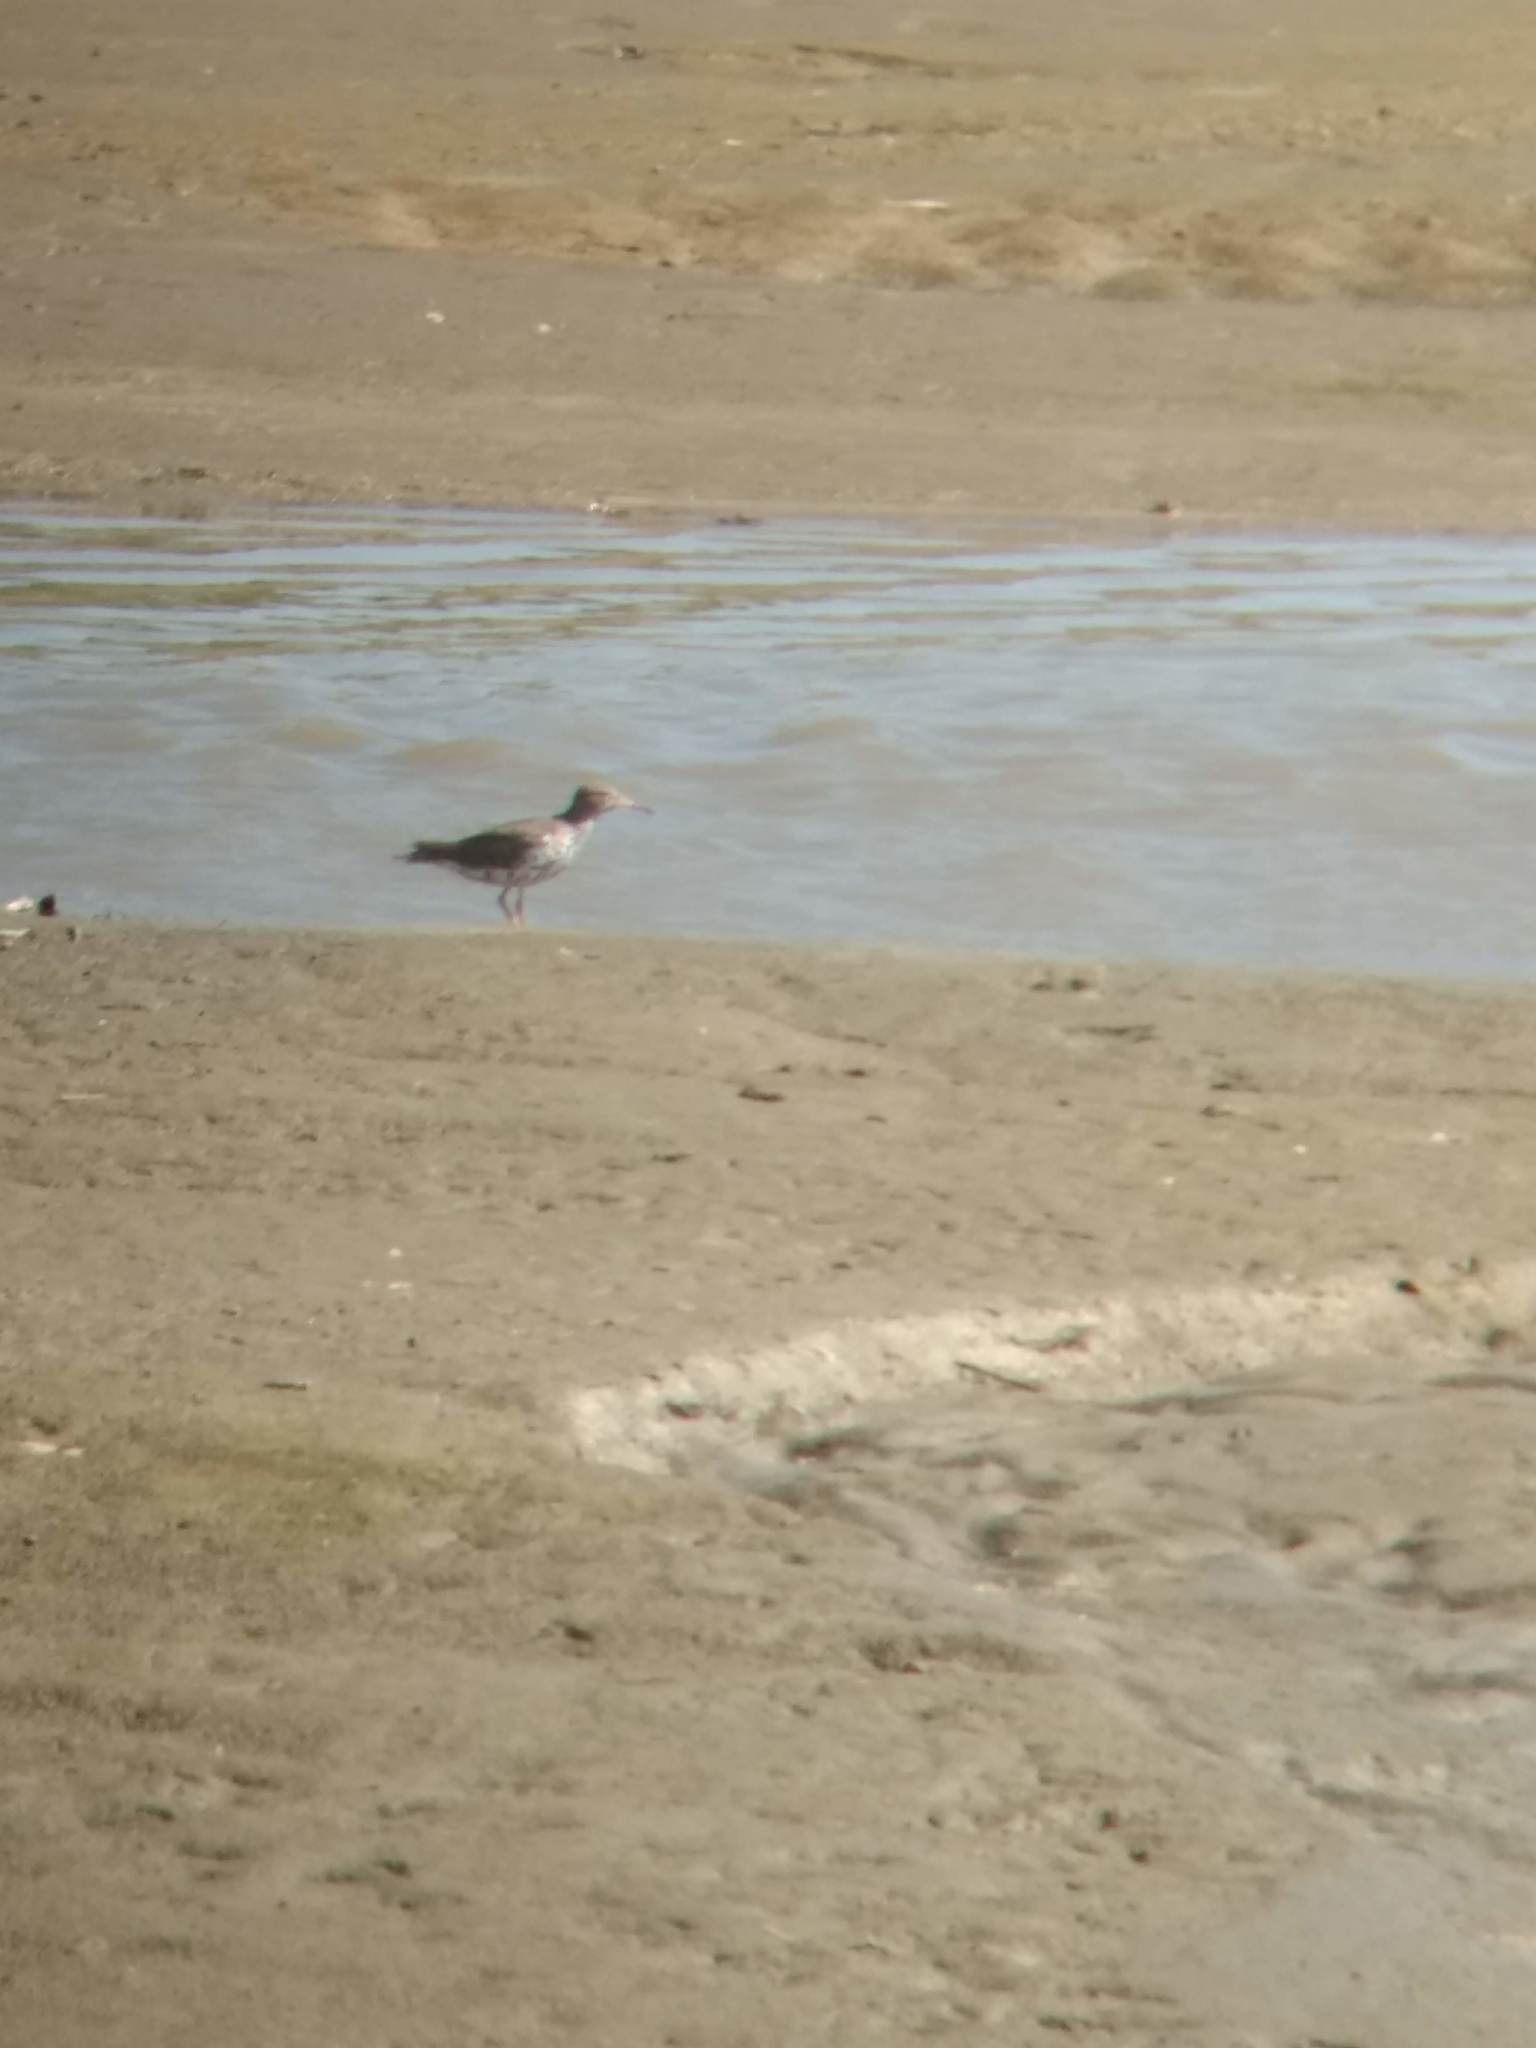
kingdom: Animalia
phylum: Chordata
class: Aves
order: Charadriiformes
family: Scolopacidae
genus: Actitis
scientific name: Actitis macularius
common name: Spotted sandpiper
